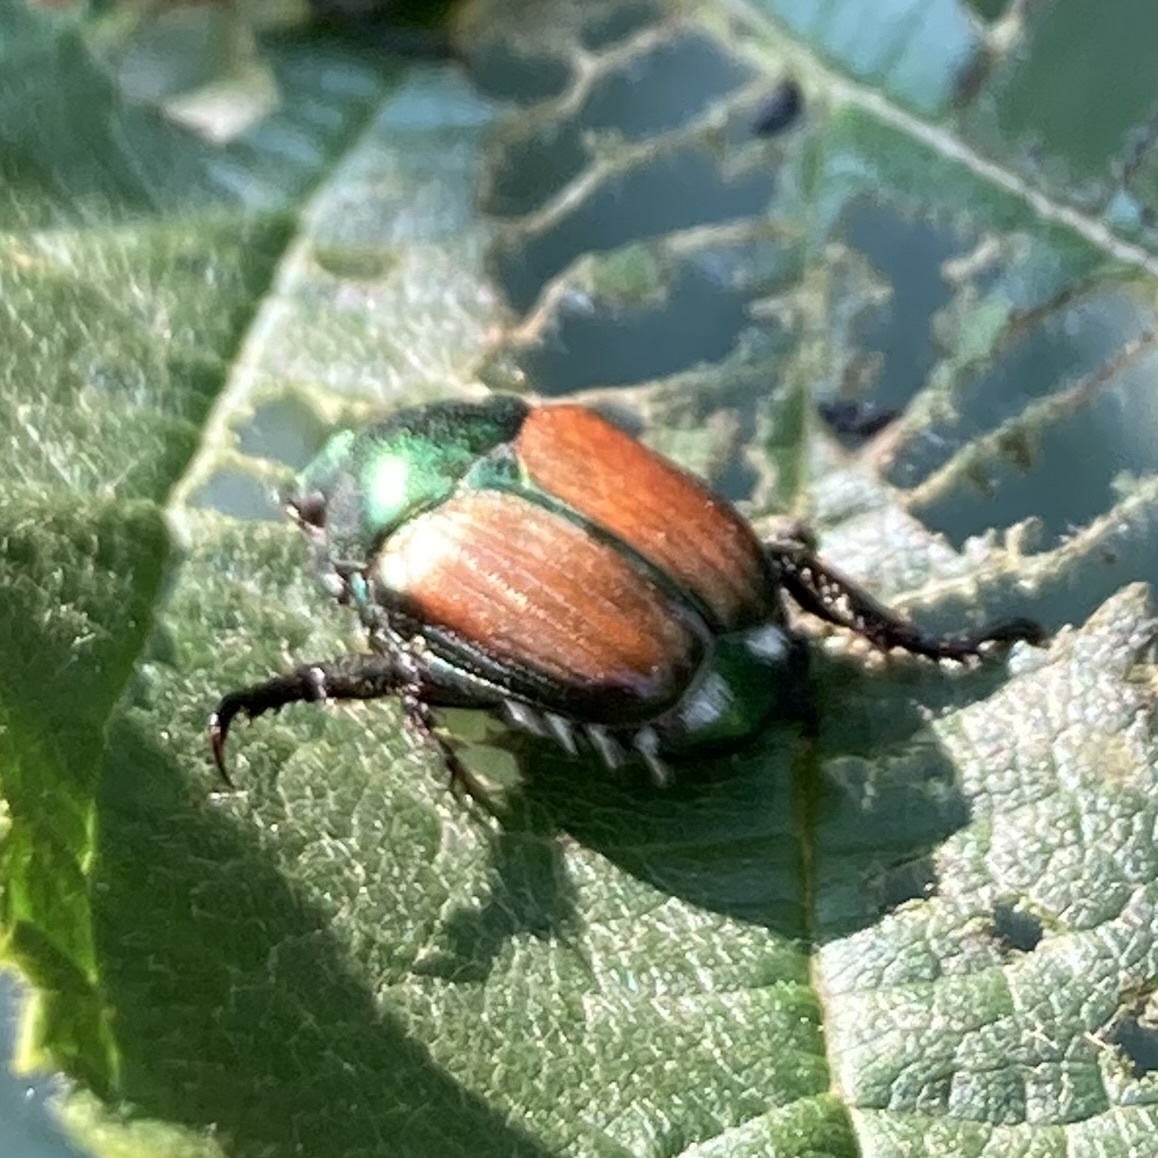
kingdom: Animalia
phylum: Arthropoda
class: Insecta
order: Coleoptera
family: Scarabaeidae
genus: Popillia
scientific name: Popillia japonica
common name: Japanese beetle
